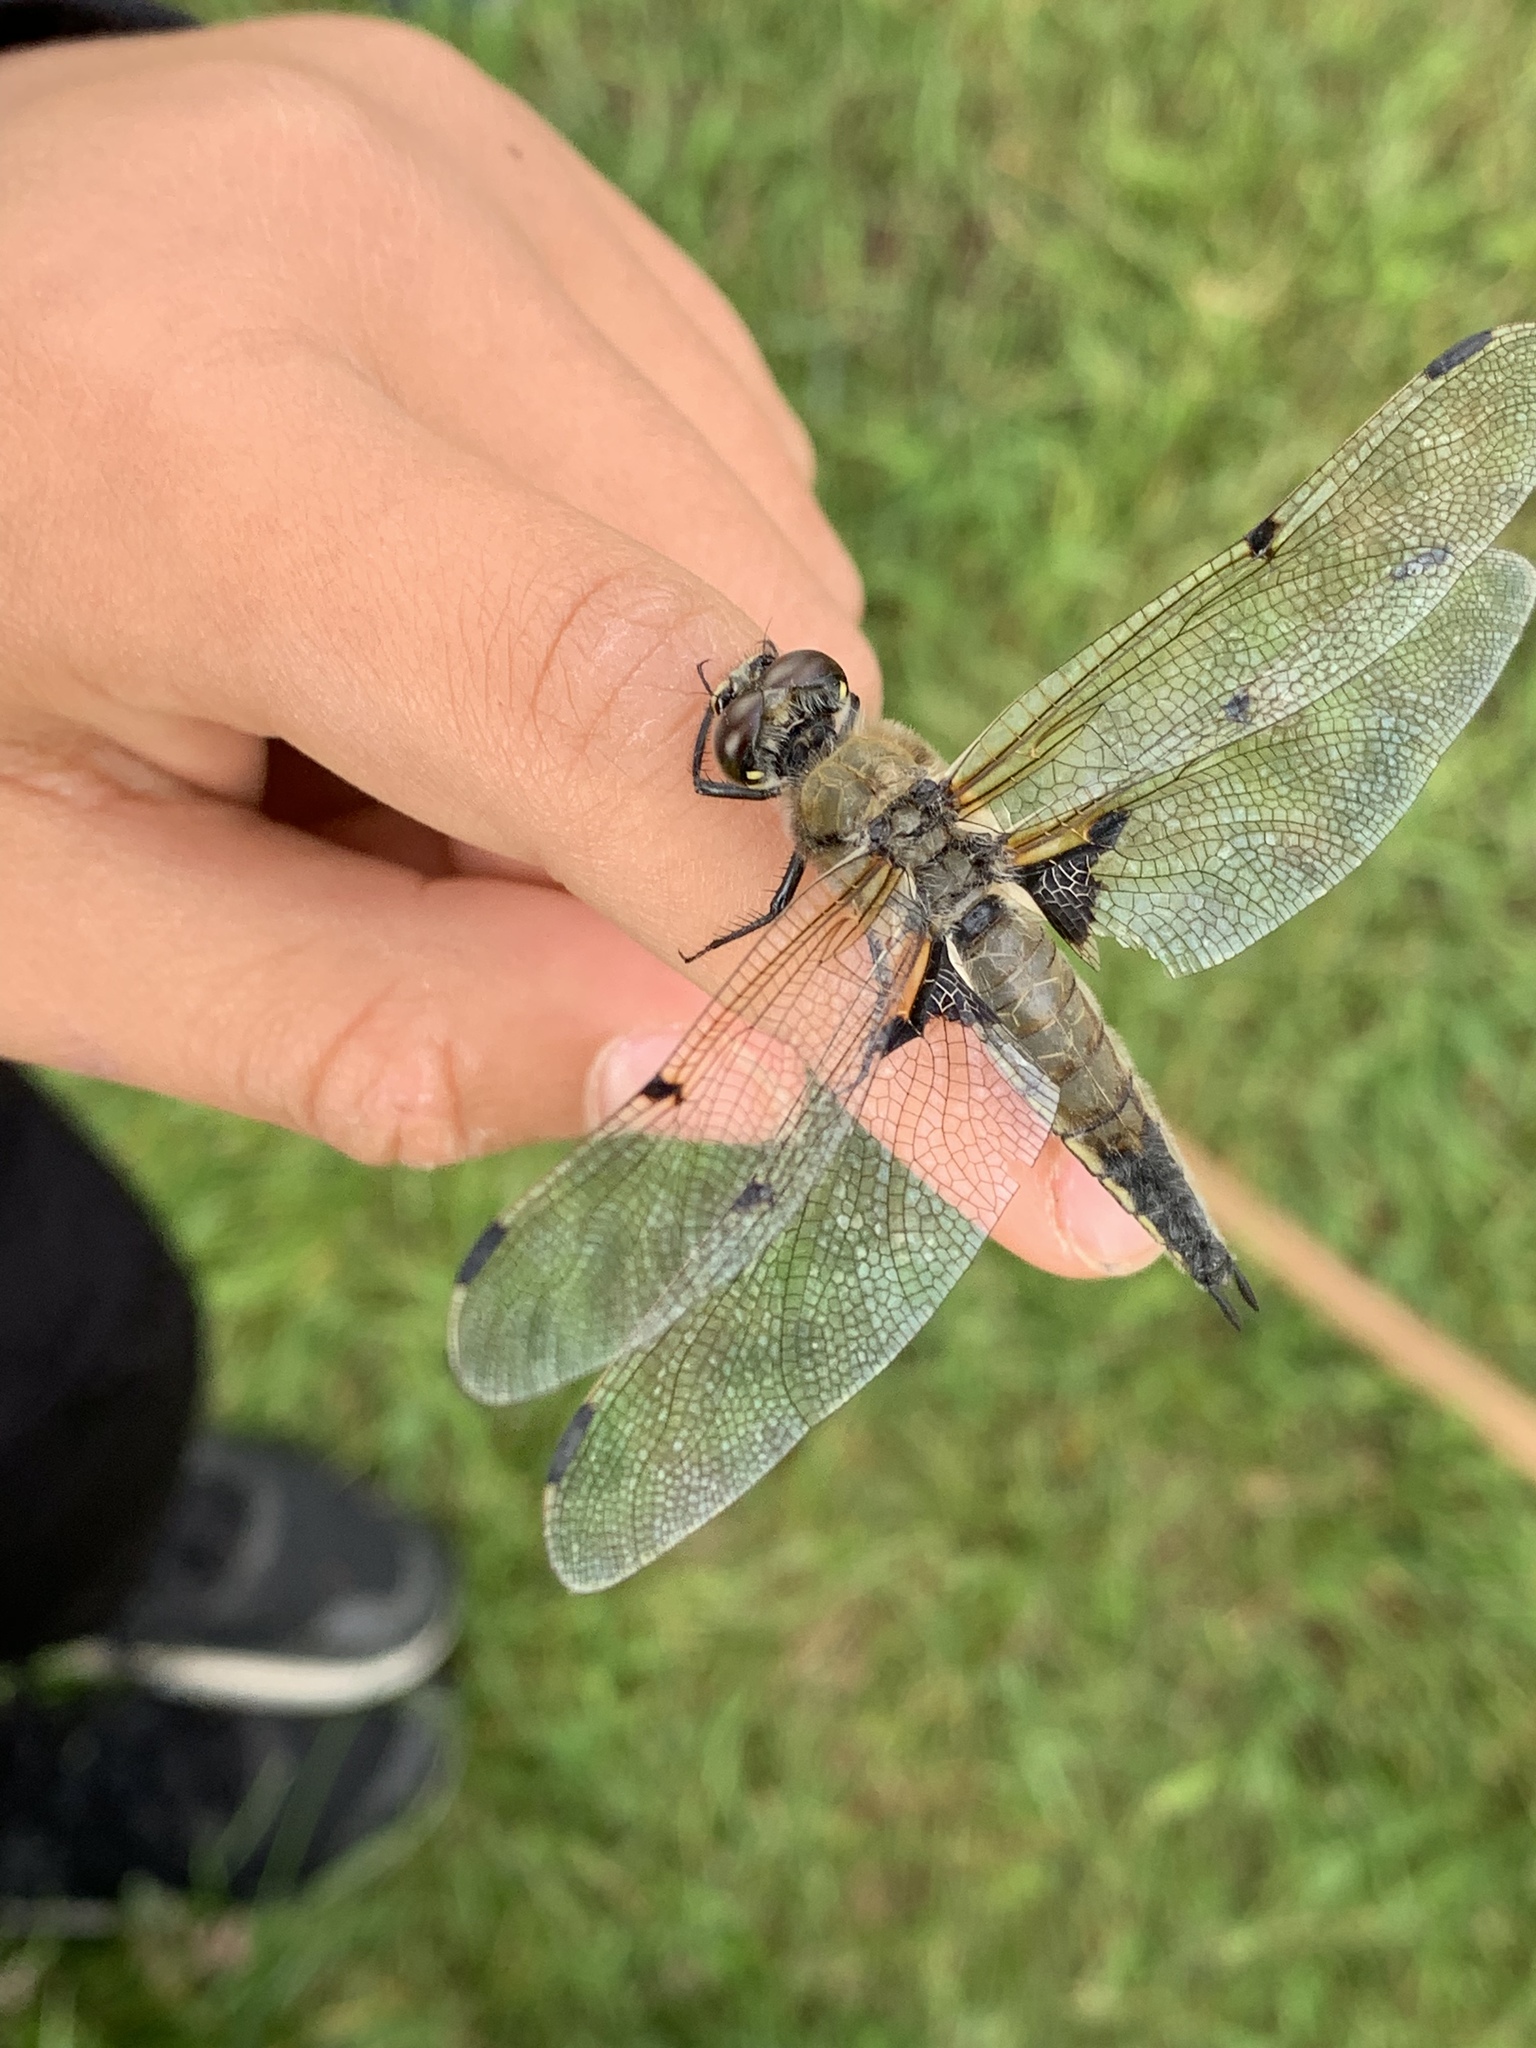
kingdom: Animalia
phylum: Arthropoda
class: Insecta
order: Odonata
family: Libellulidae
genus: Libellula
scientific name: Libellula quadrimaculata
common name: Four-spotted chaser
